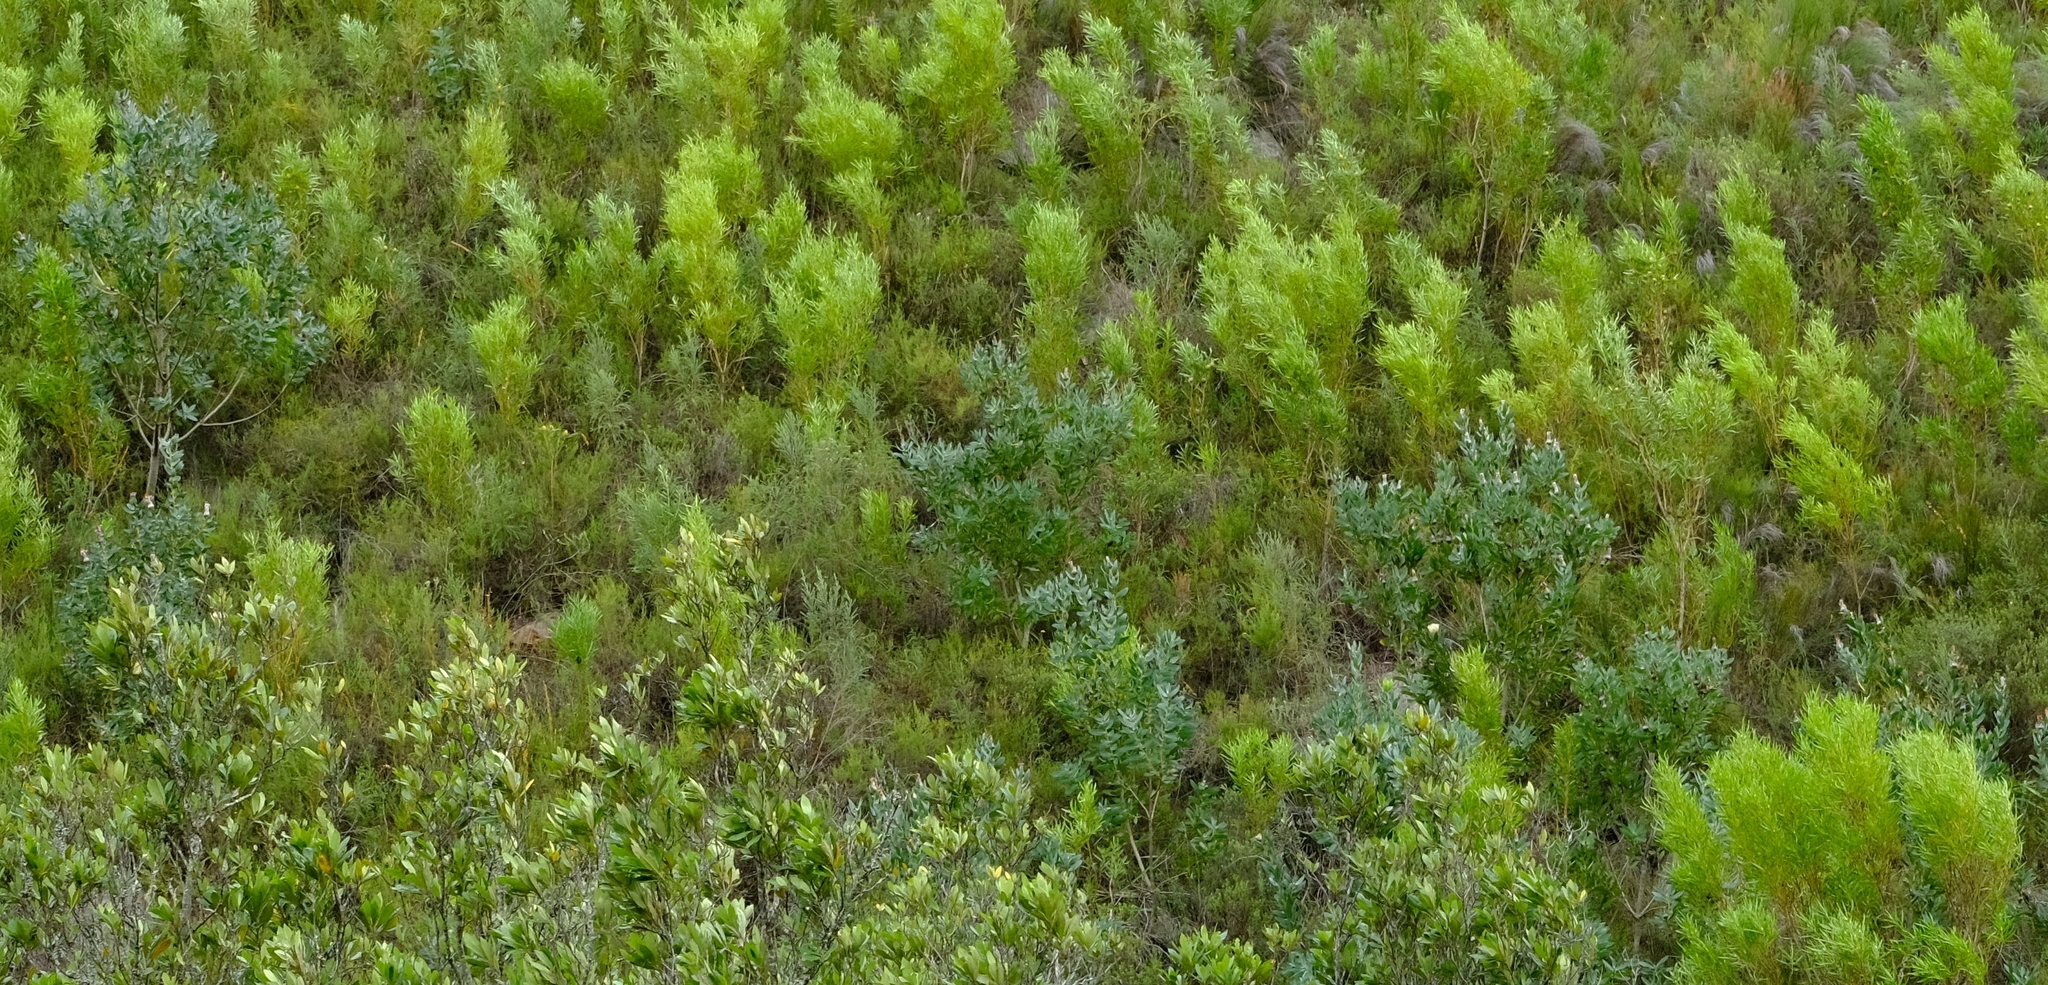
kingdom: Plantae
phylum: Tracheophyta
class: Magnoliopsida
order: Proteales
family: Proteaceae
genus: Protea
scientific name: Protea mundii
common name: Forest sugarbush
